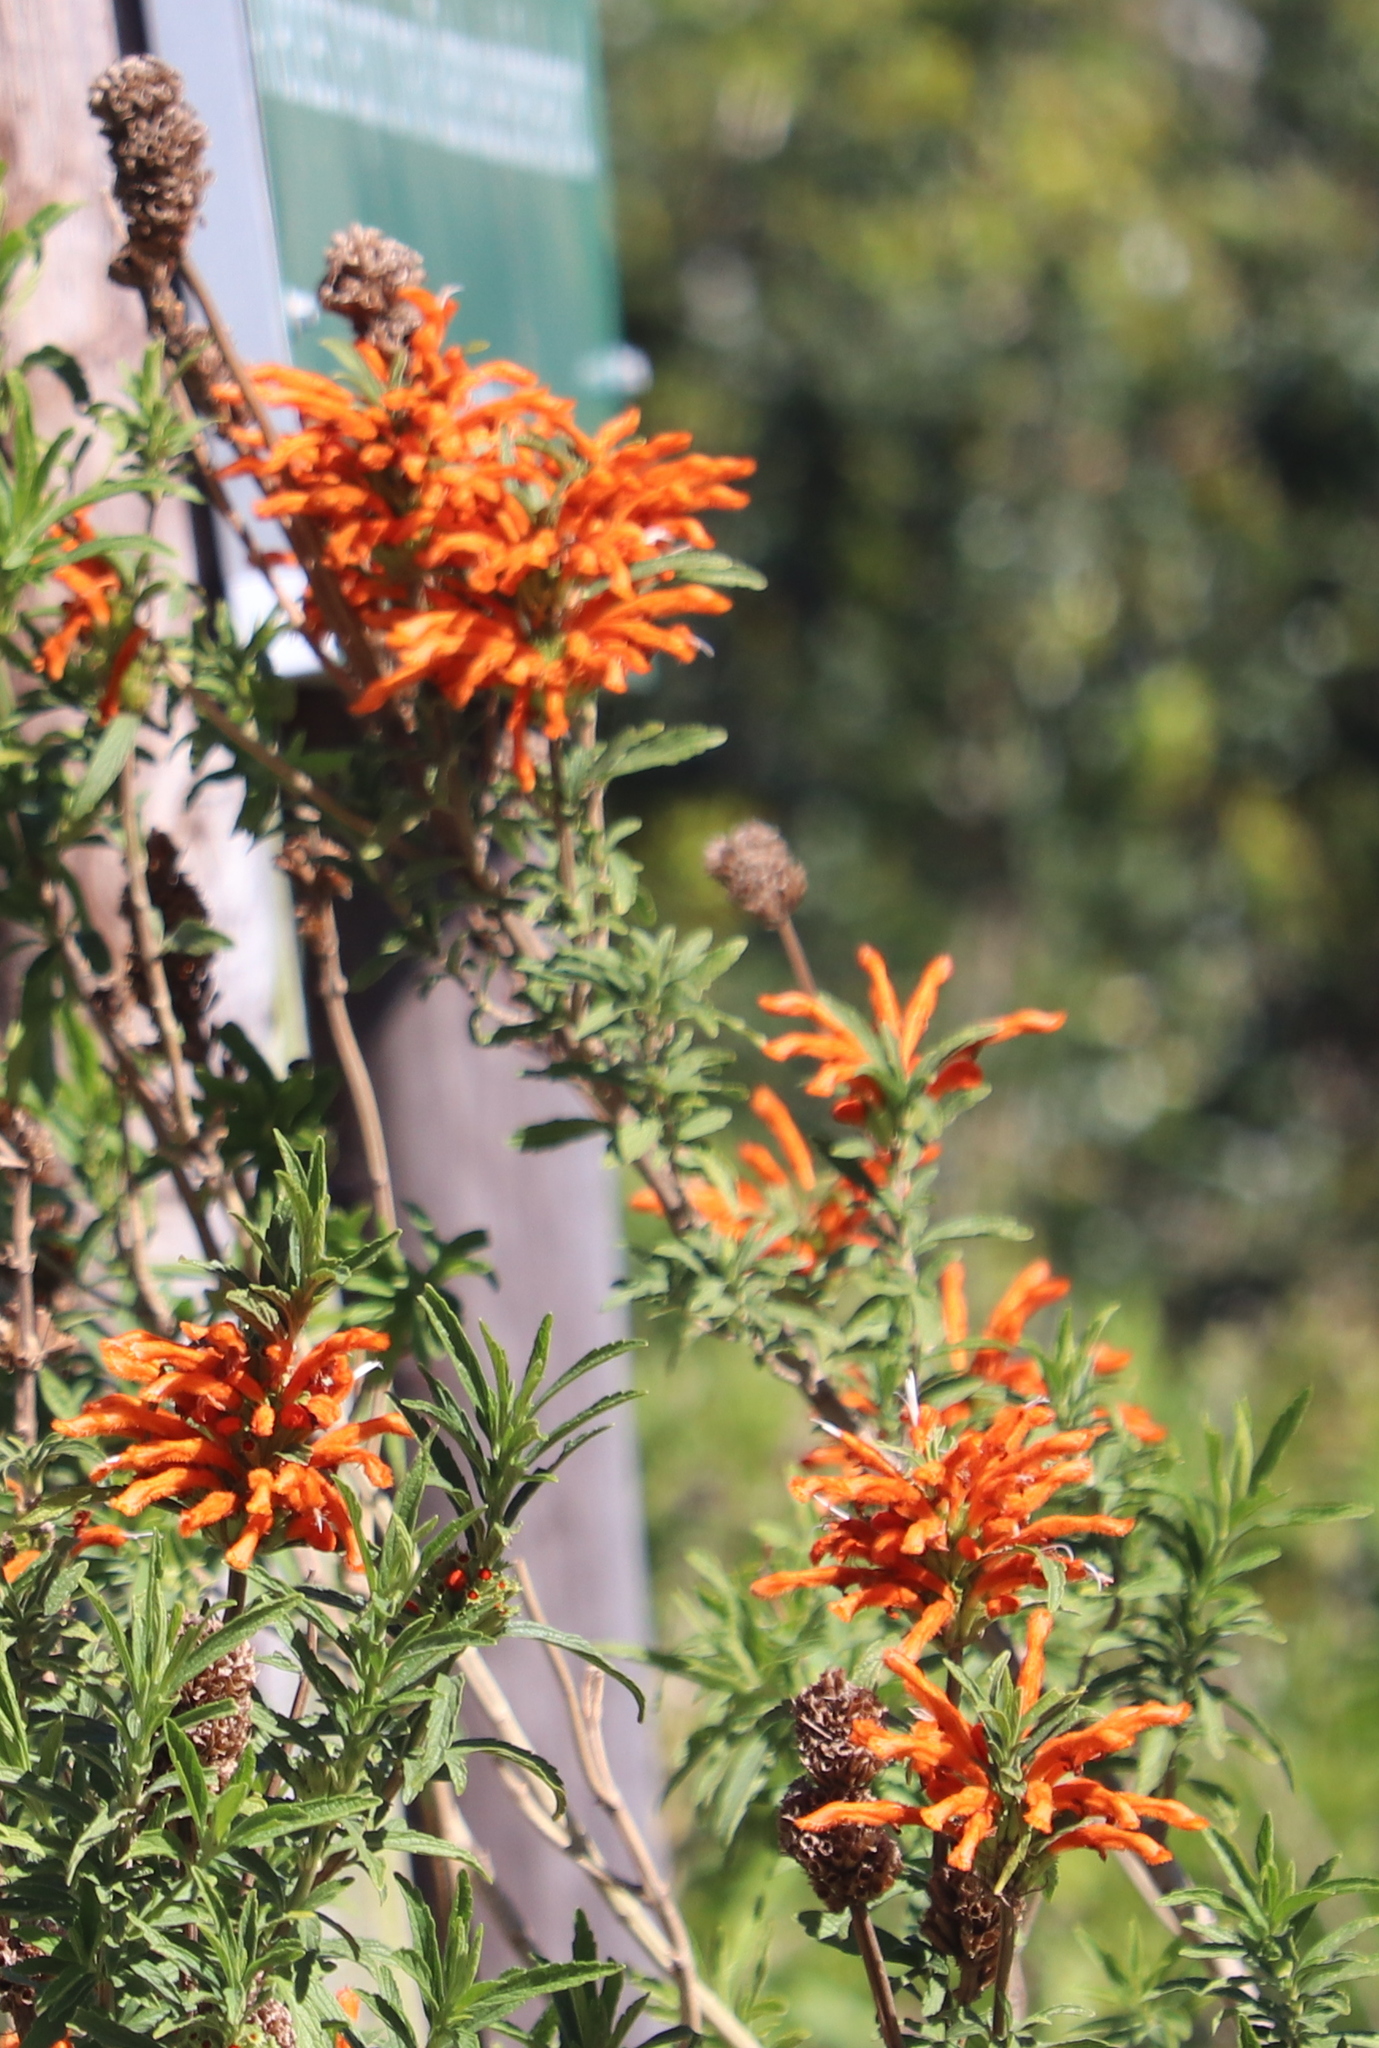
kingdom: Plantae
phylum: Tracheophyta
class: Magnoliopsida
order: Lamiales
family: Lamiaceae
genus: Leonotis
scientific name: Leonotis leonurus
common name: Lion's ear
